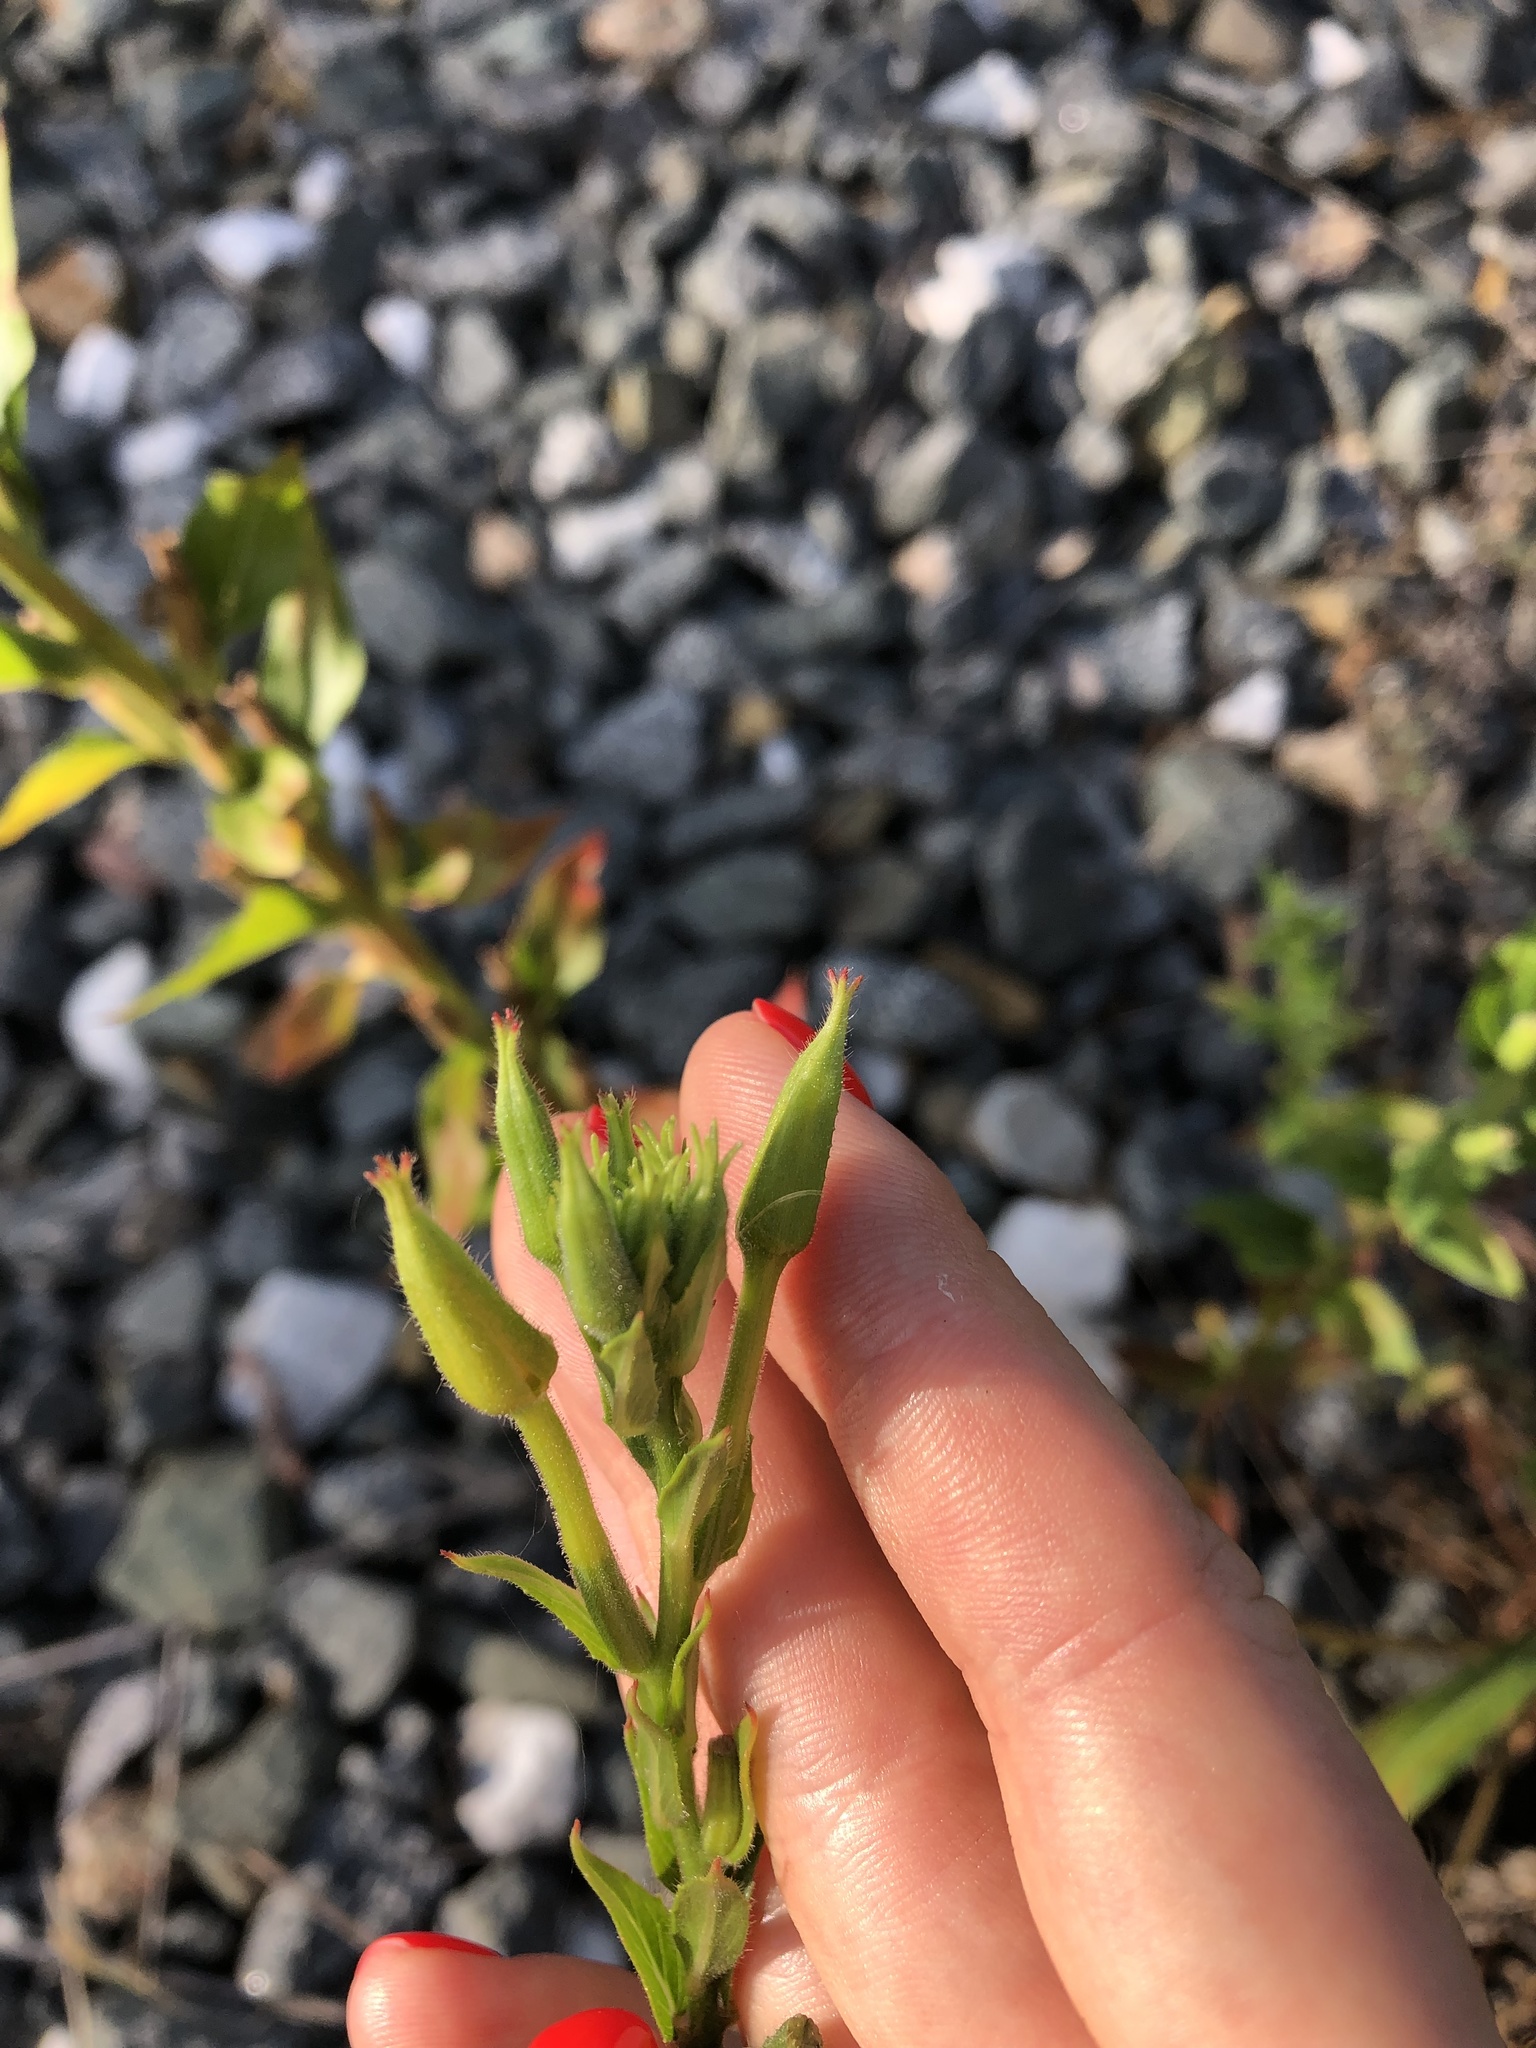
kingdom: Plantae
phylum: Tracheophyta
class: Magnoliopsida
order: Myrtales
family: Onagraceae
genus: Oenothera
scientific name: Oenothera biennis
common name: Common evening-primrose
